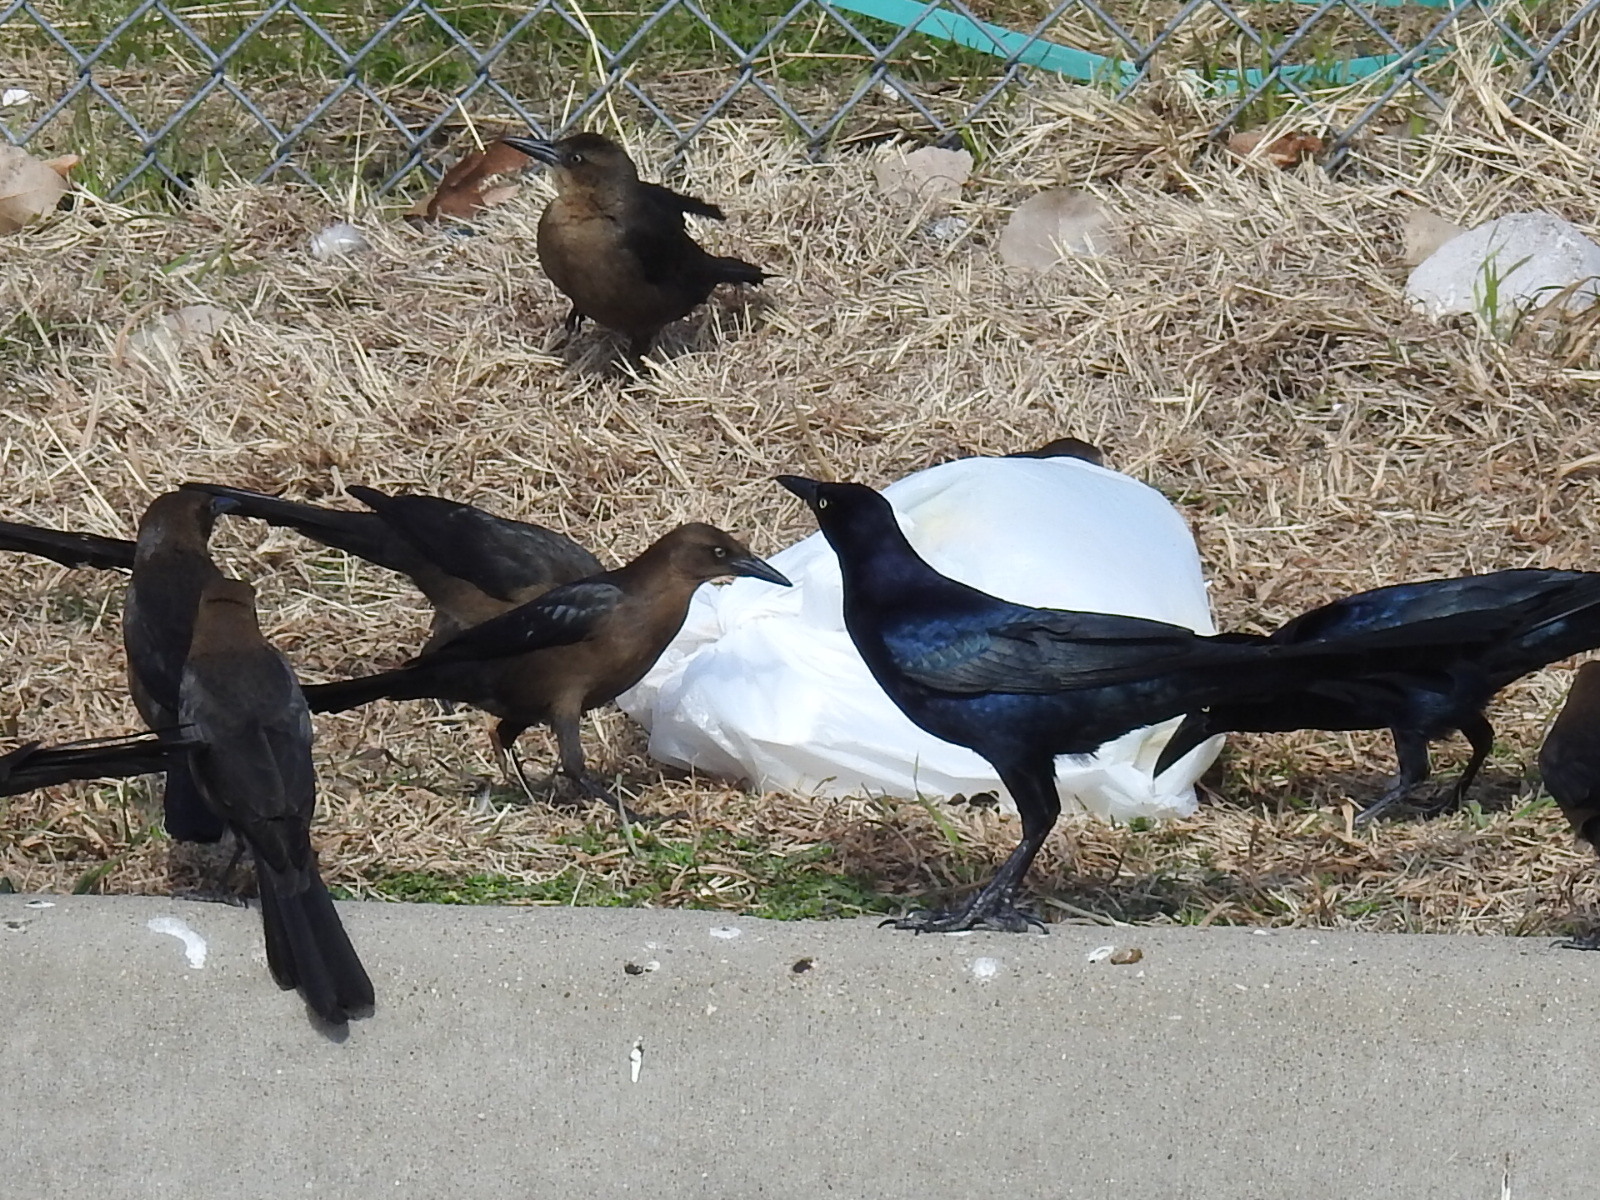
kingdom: Animalia
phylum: Chordata
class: Aves
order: Passeriformes
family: Icteridae
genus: Quiscalus
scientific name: Quiscalus mexicanus
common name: Great-tailed grackle
